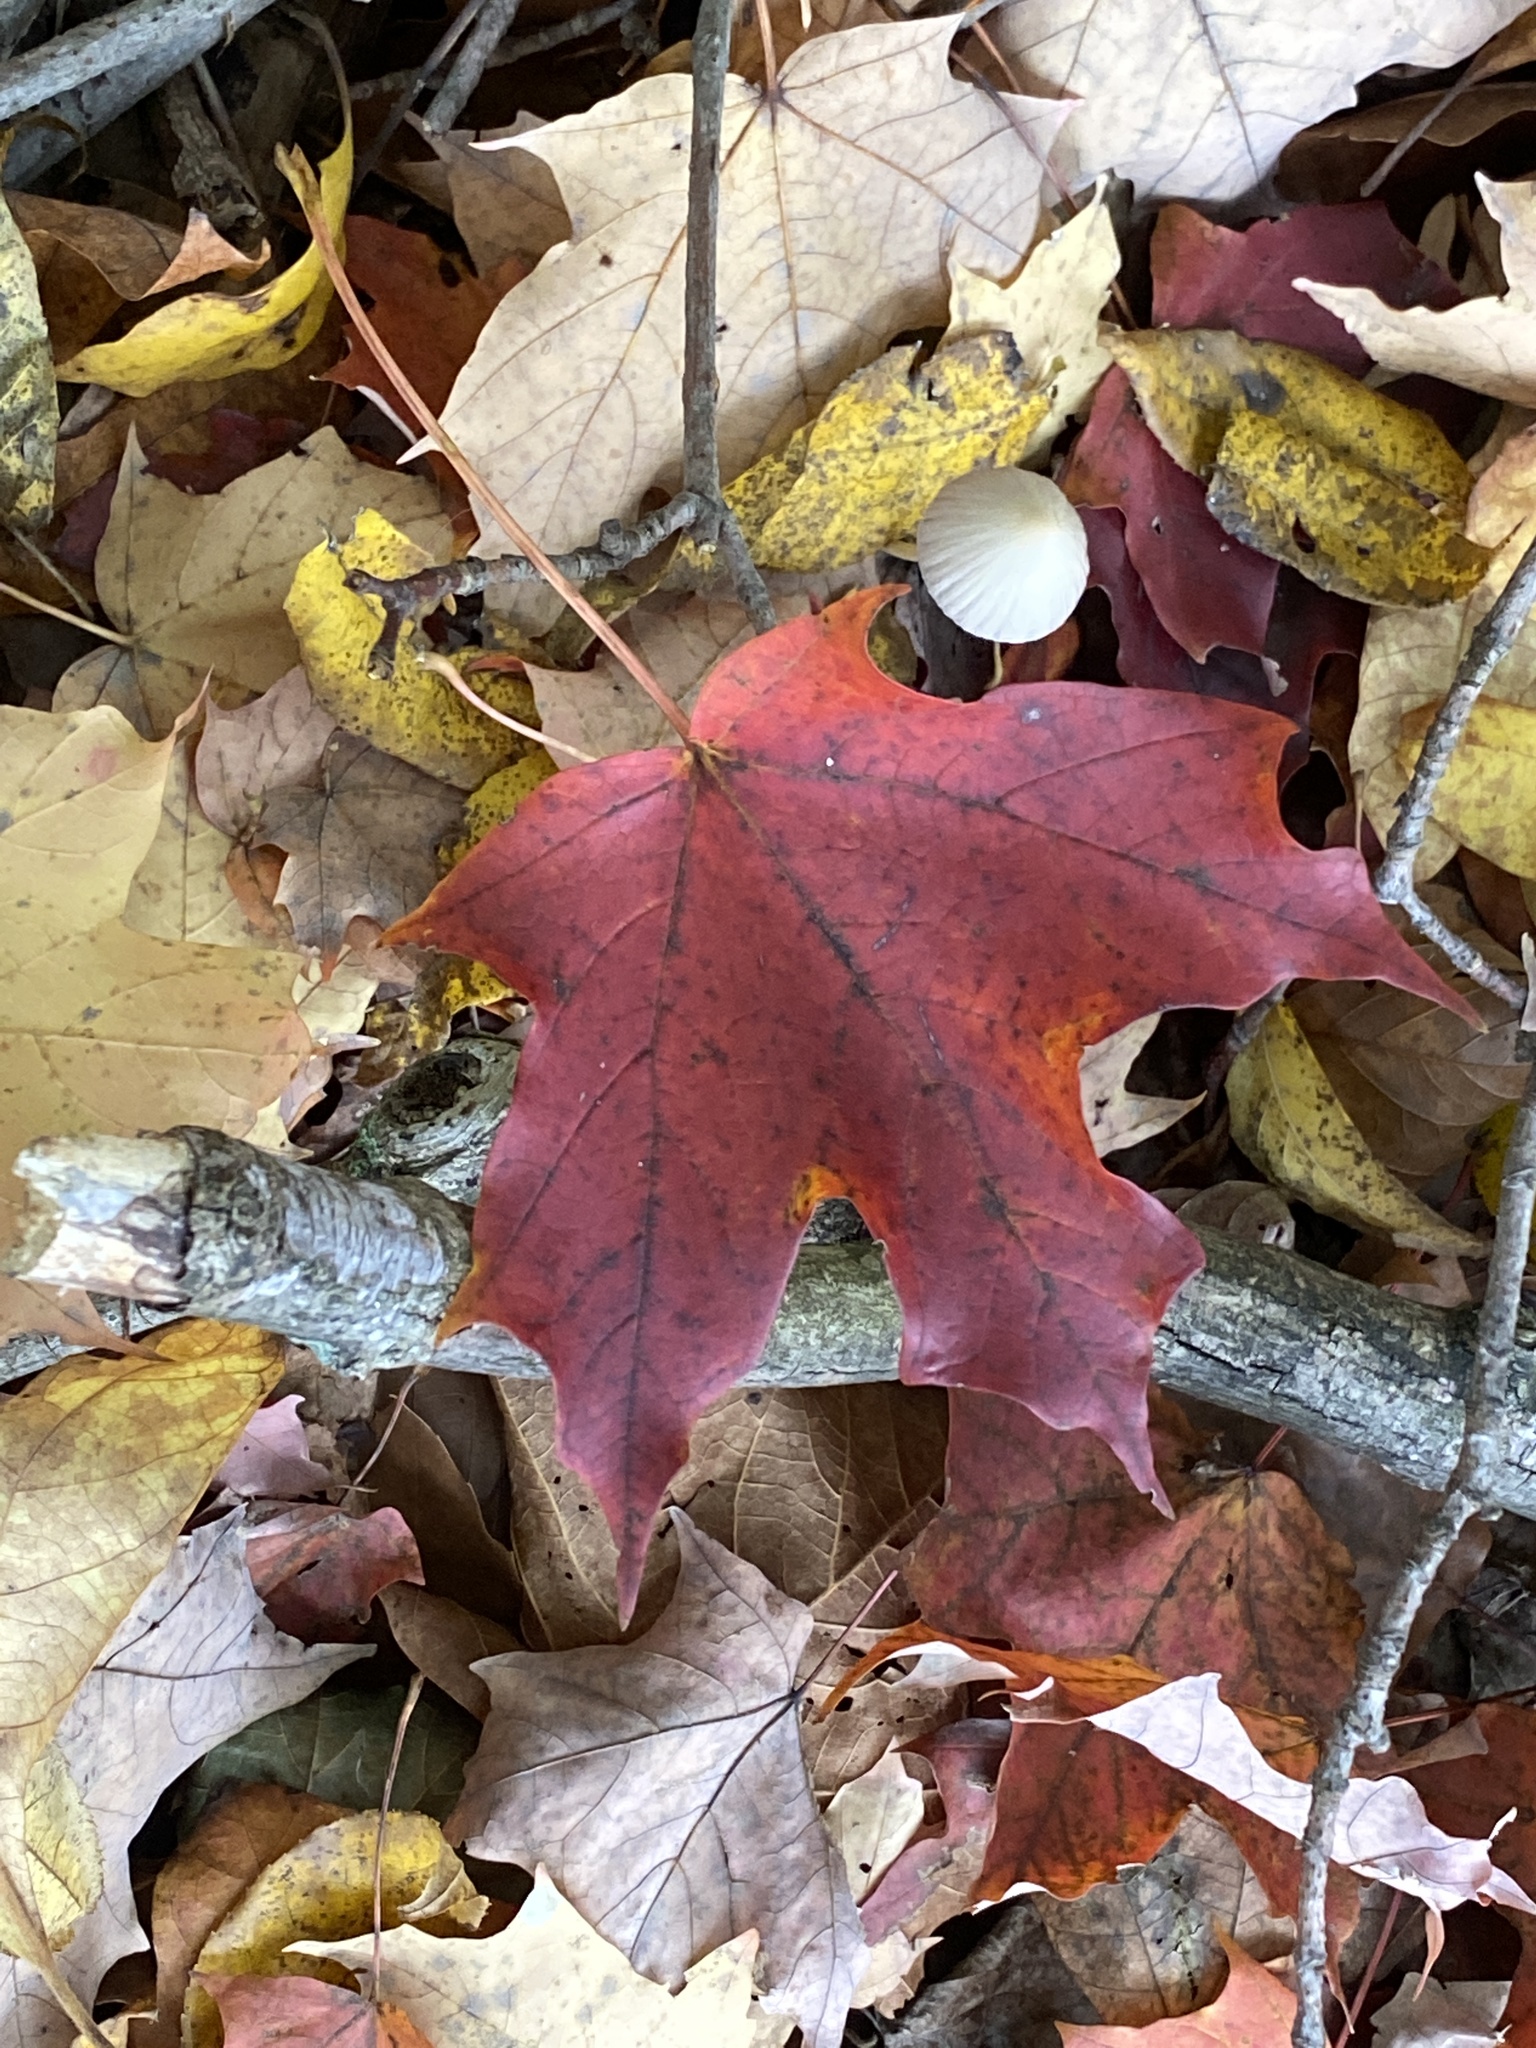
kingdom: Plantae
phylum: Tracheophyta
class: Magnoliopsida
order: Sapindales
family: Sapindaceae
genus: Acer
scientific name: Acer saccharum
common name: Sugar maple
